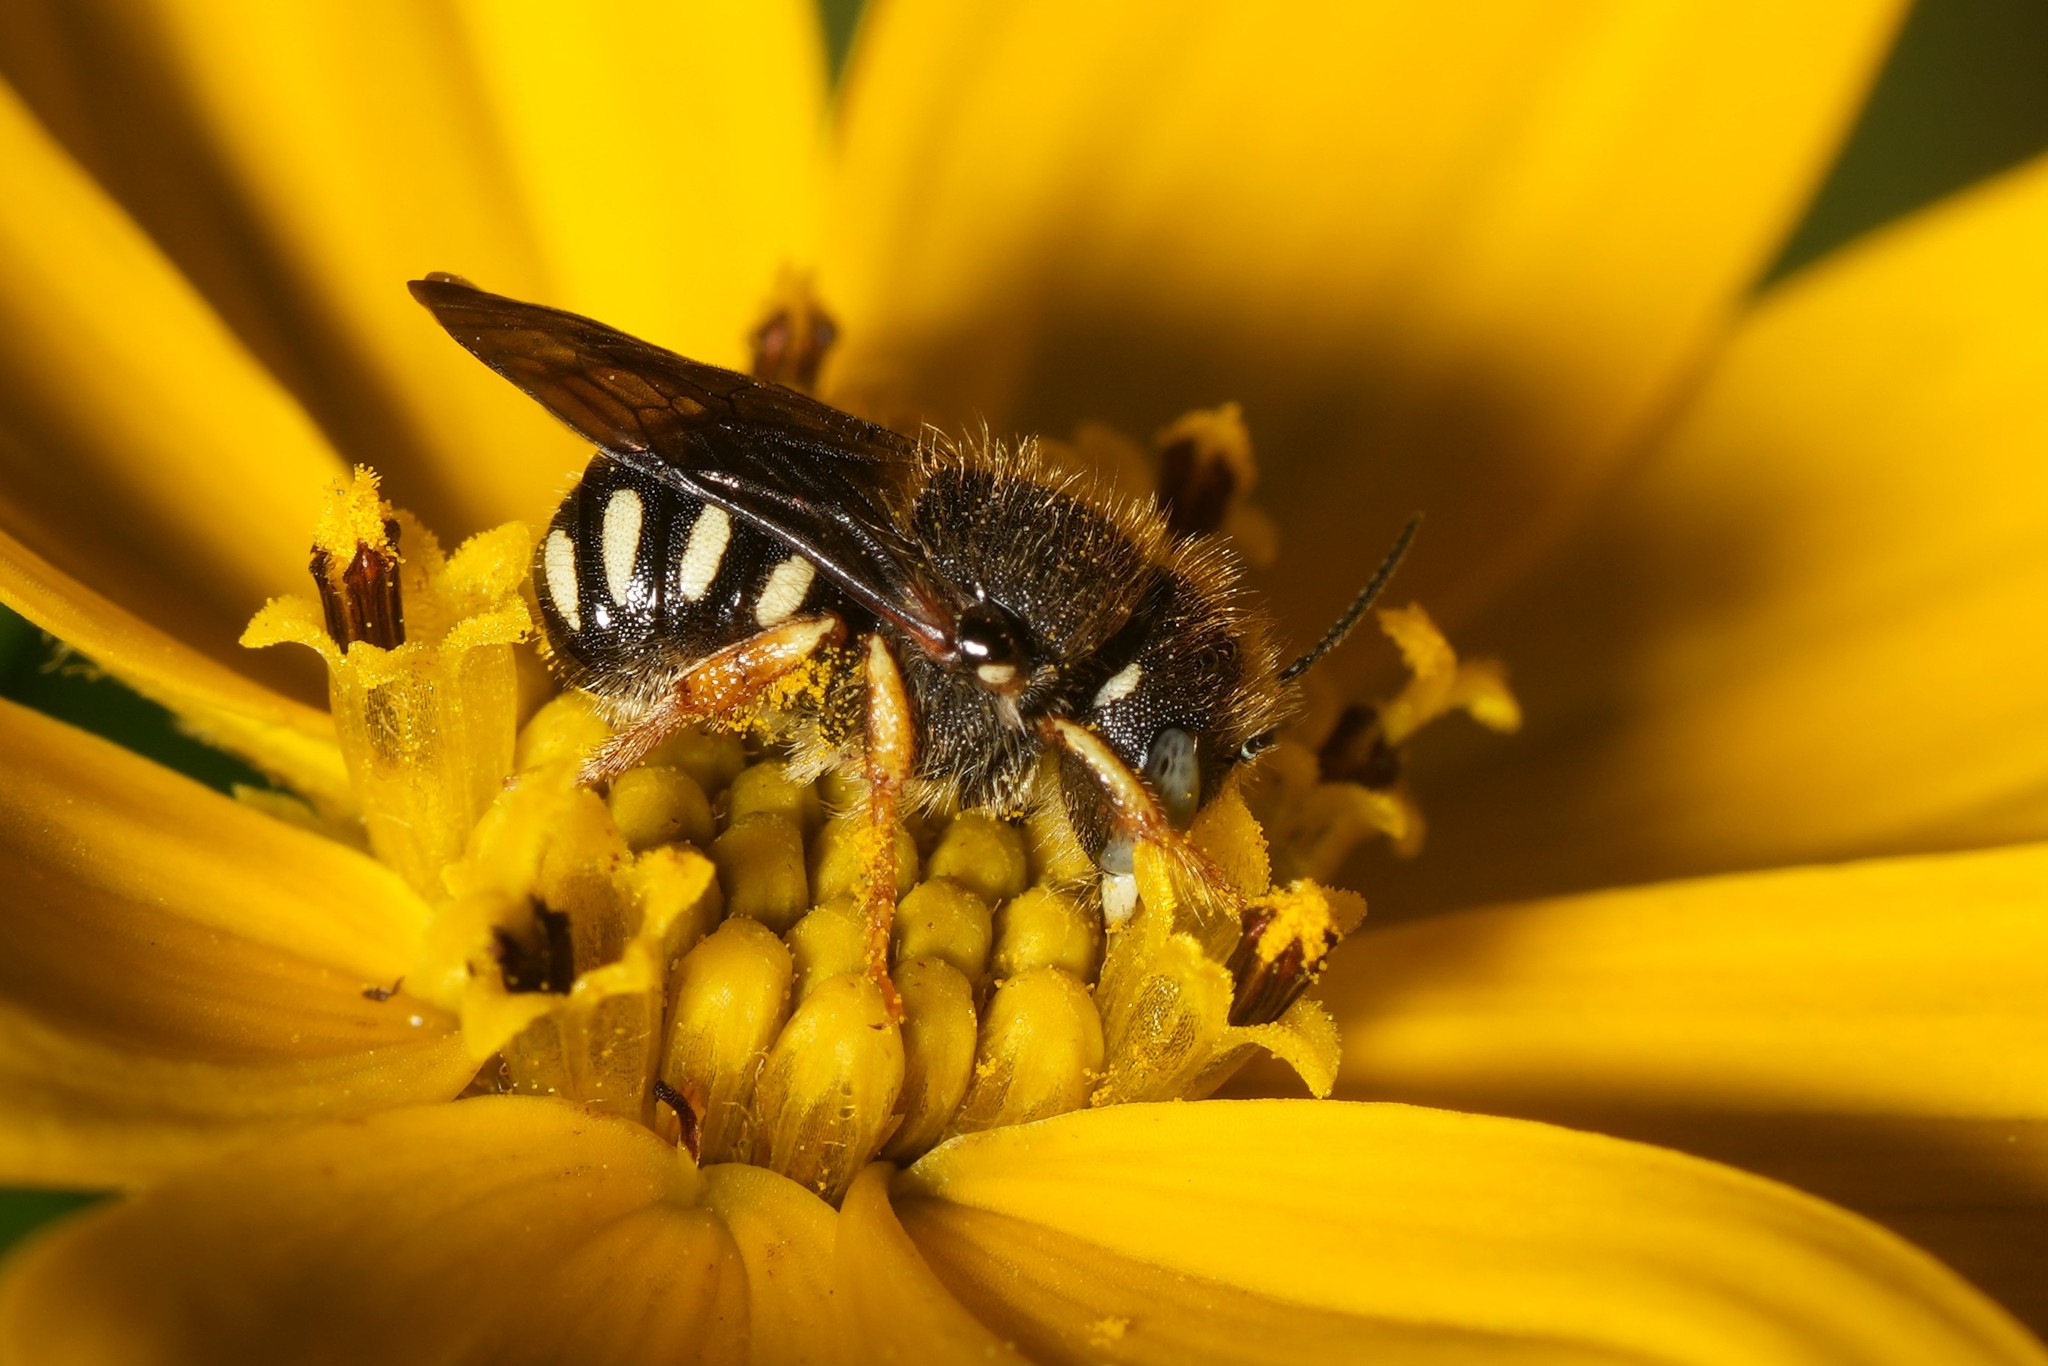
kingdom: Animalia
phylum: Arthropoda
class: Insecta
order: Hymenoptera
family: Megachilidae
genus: Pseudoanthidium
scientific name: Pseudoanthidium nanum
